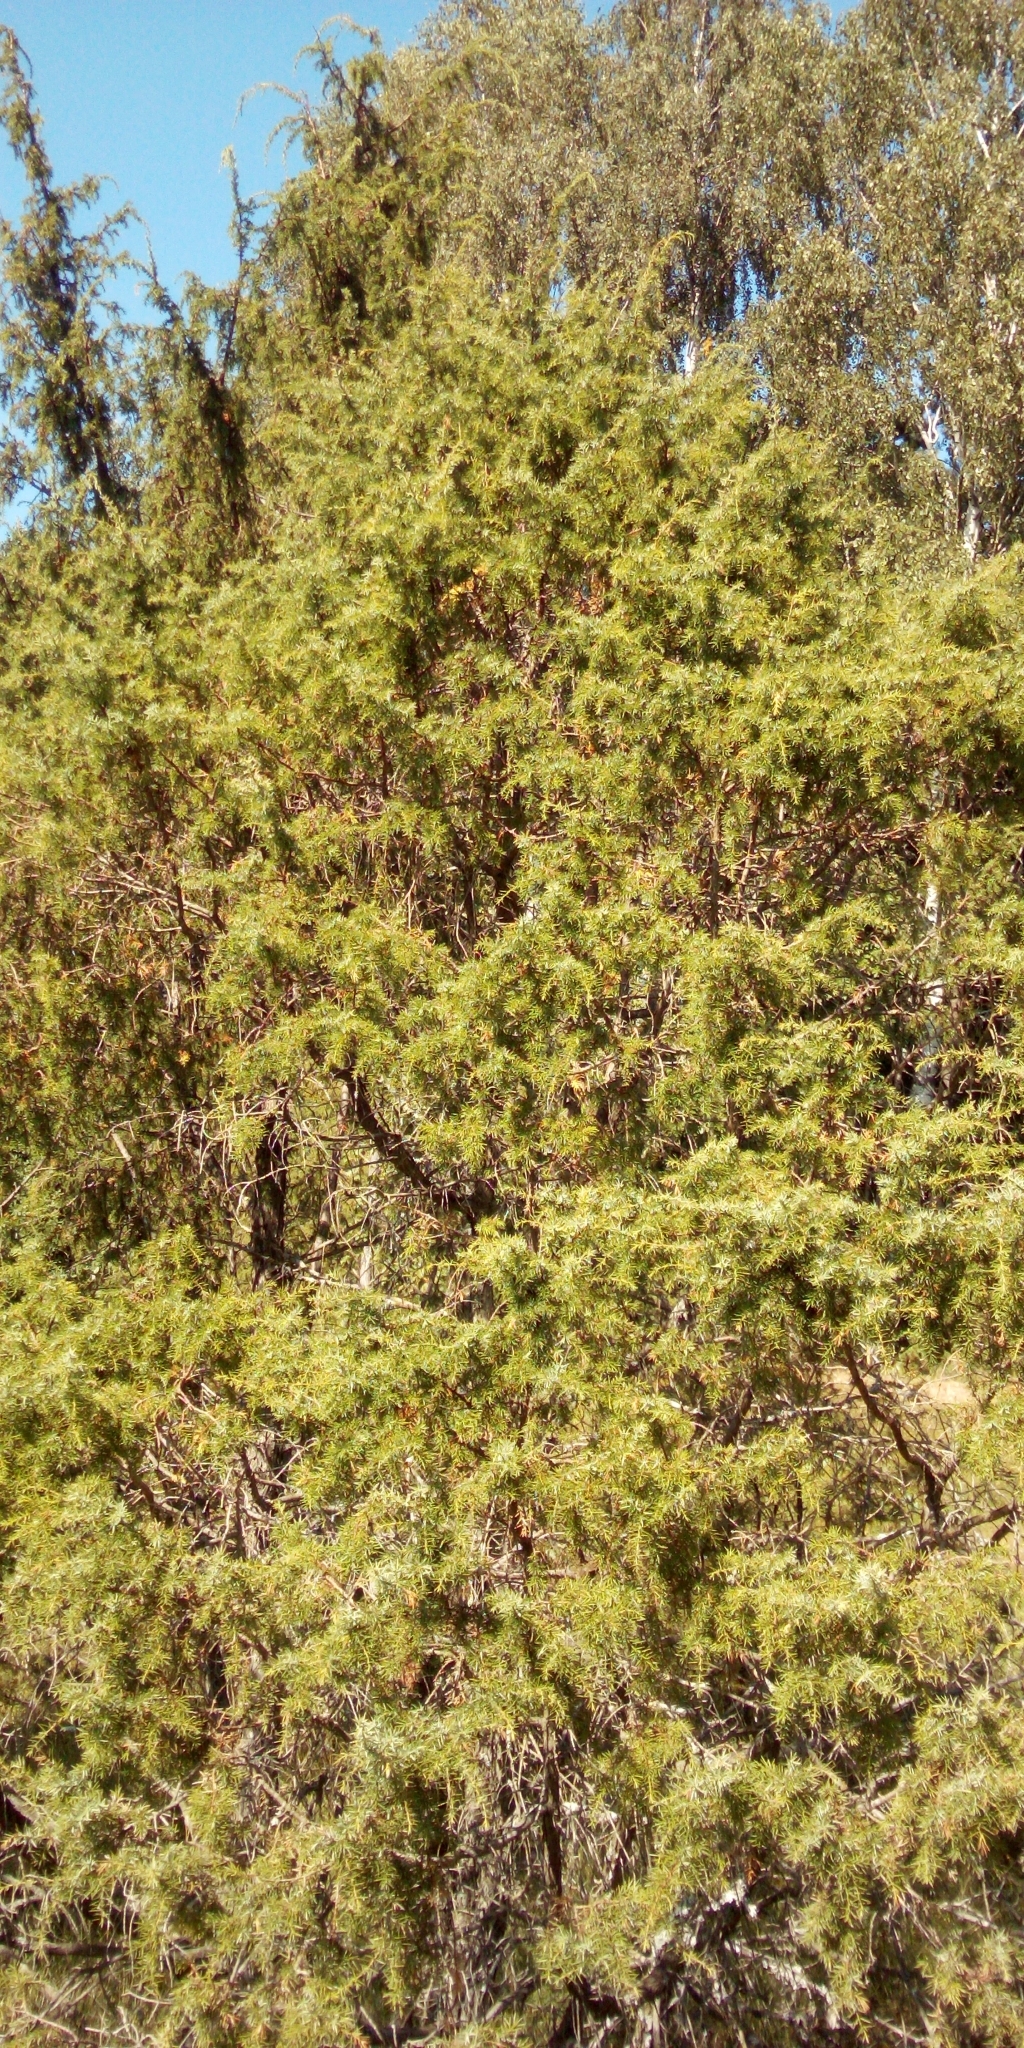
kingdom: Plantae
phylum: Tracheophyta
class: Pinopsida
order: Pinales
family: Cupressaceae
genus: Juniperus
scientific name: Juniperus communis
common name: Common juniper
